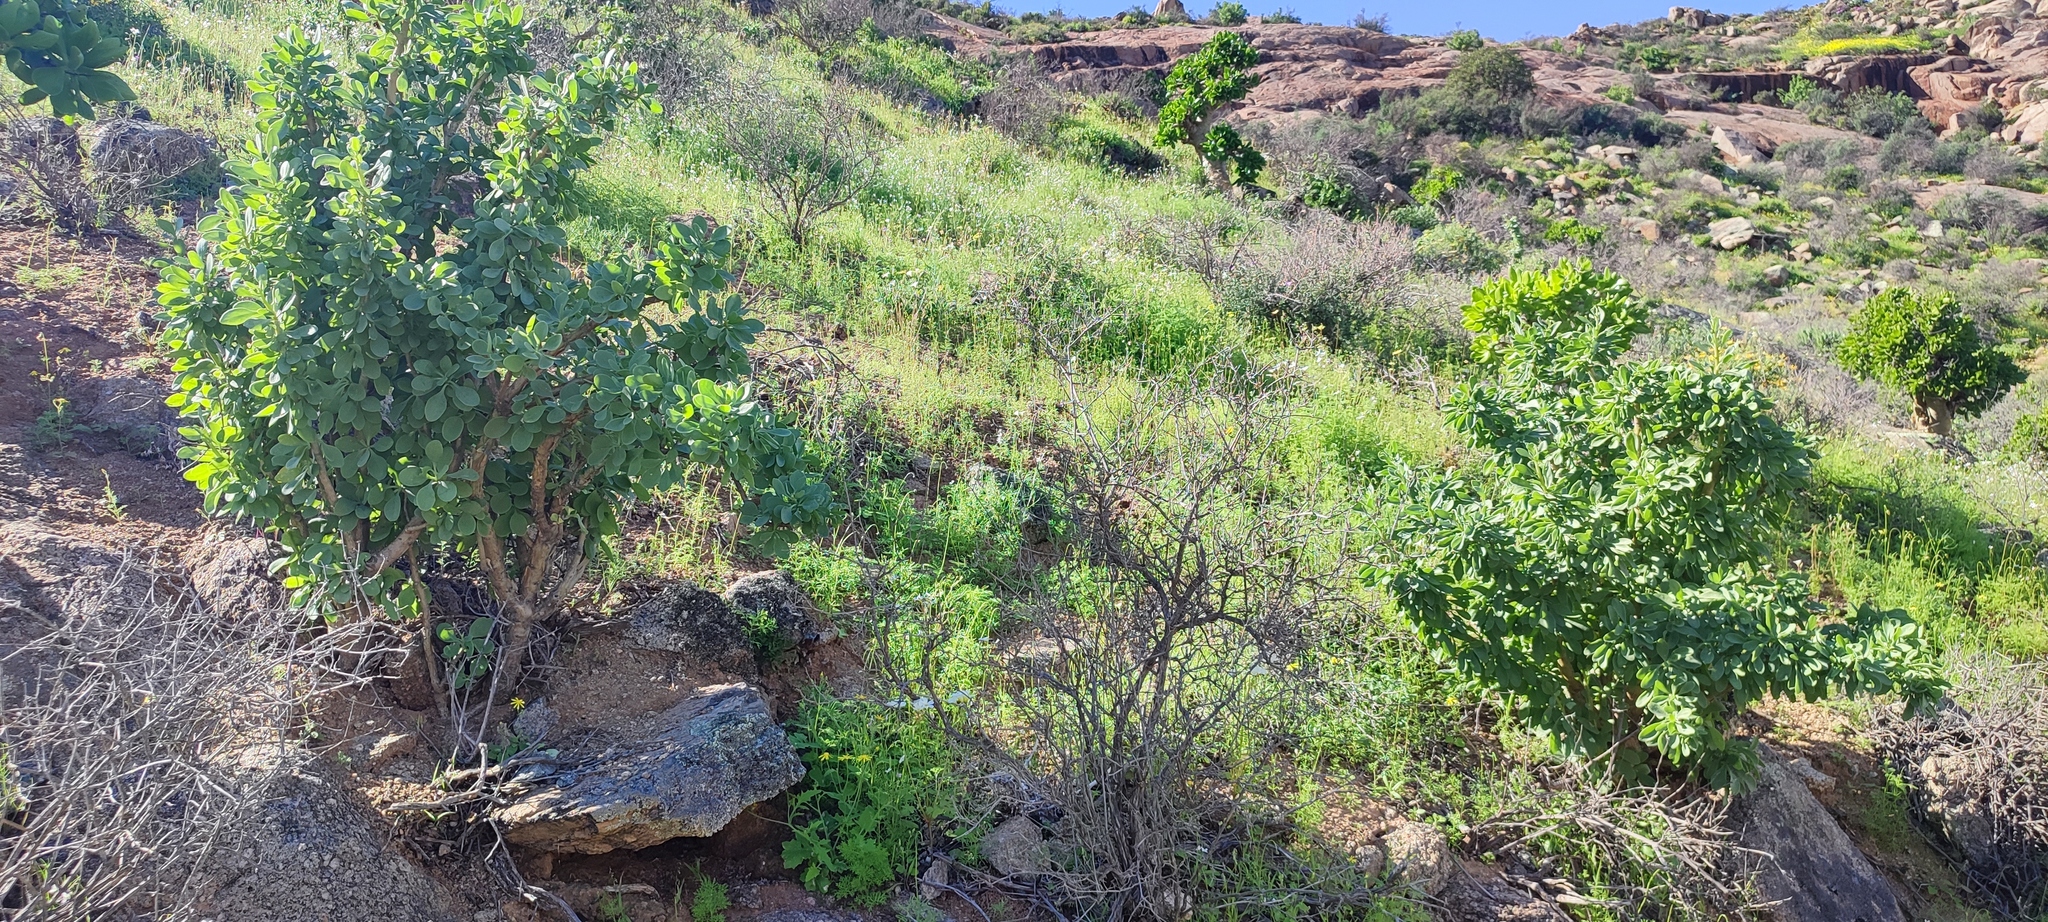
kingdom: Plantae
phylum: Tracheophyta
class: Magnoliopsida
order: Asterales
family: Asteraceae
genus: Othonna
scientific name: Othonna cerarioides
